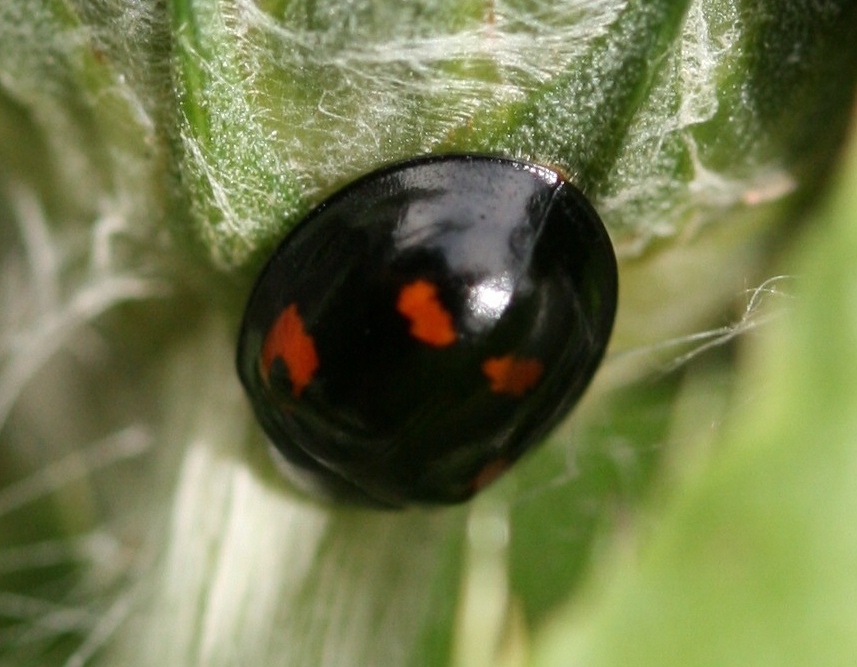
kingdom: Animalia
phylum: Arthropoda
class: Insecta
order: Coleoptera
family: Coccinellidae
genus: Brumus
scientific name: Brumus quadripustulatus
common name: Ladybird beetle
